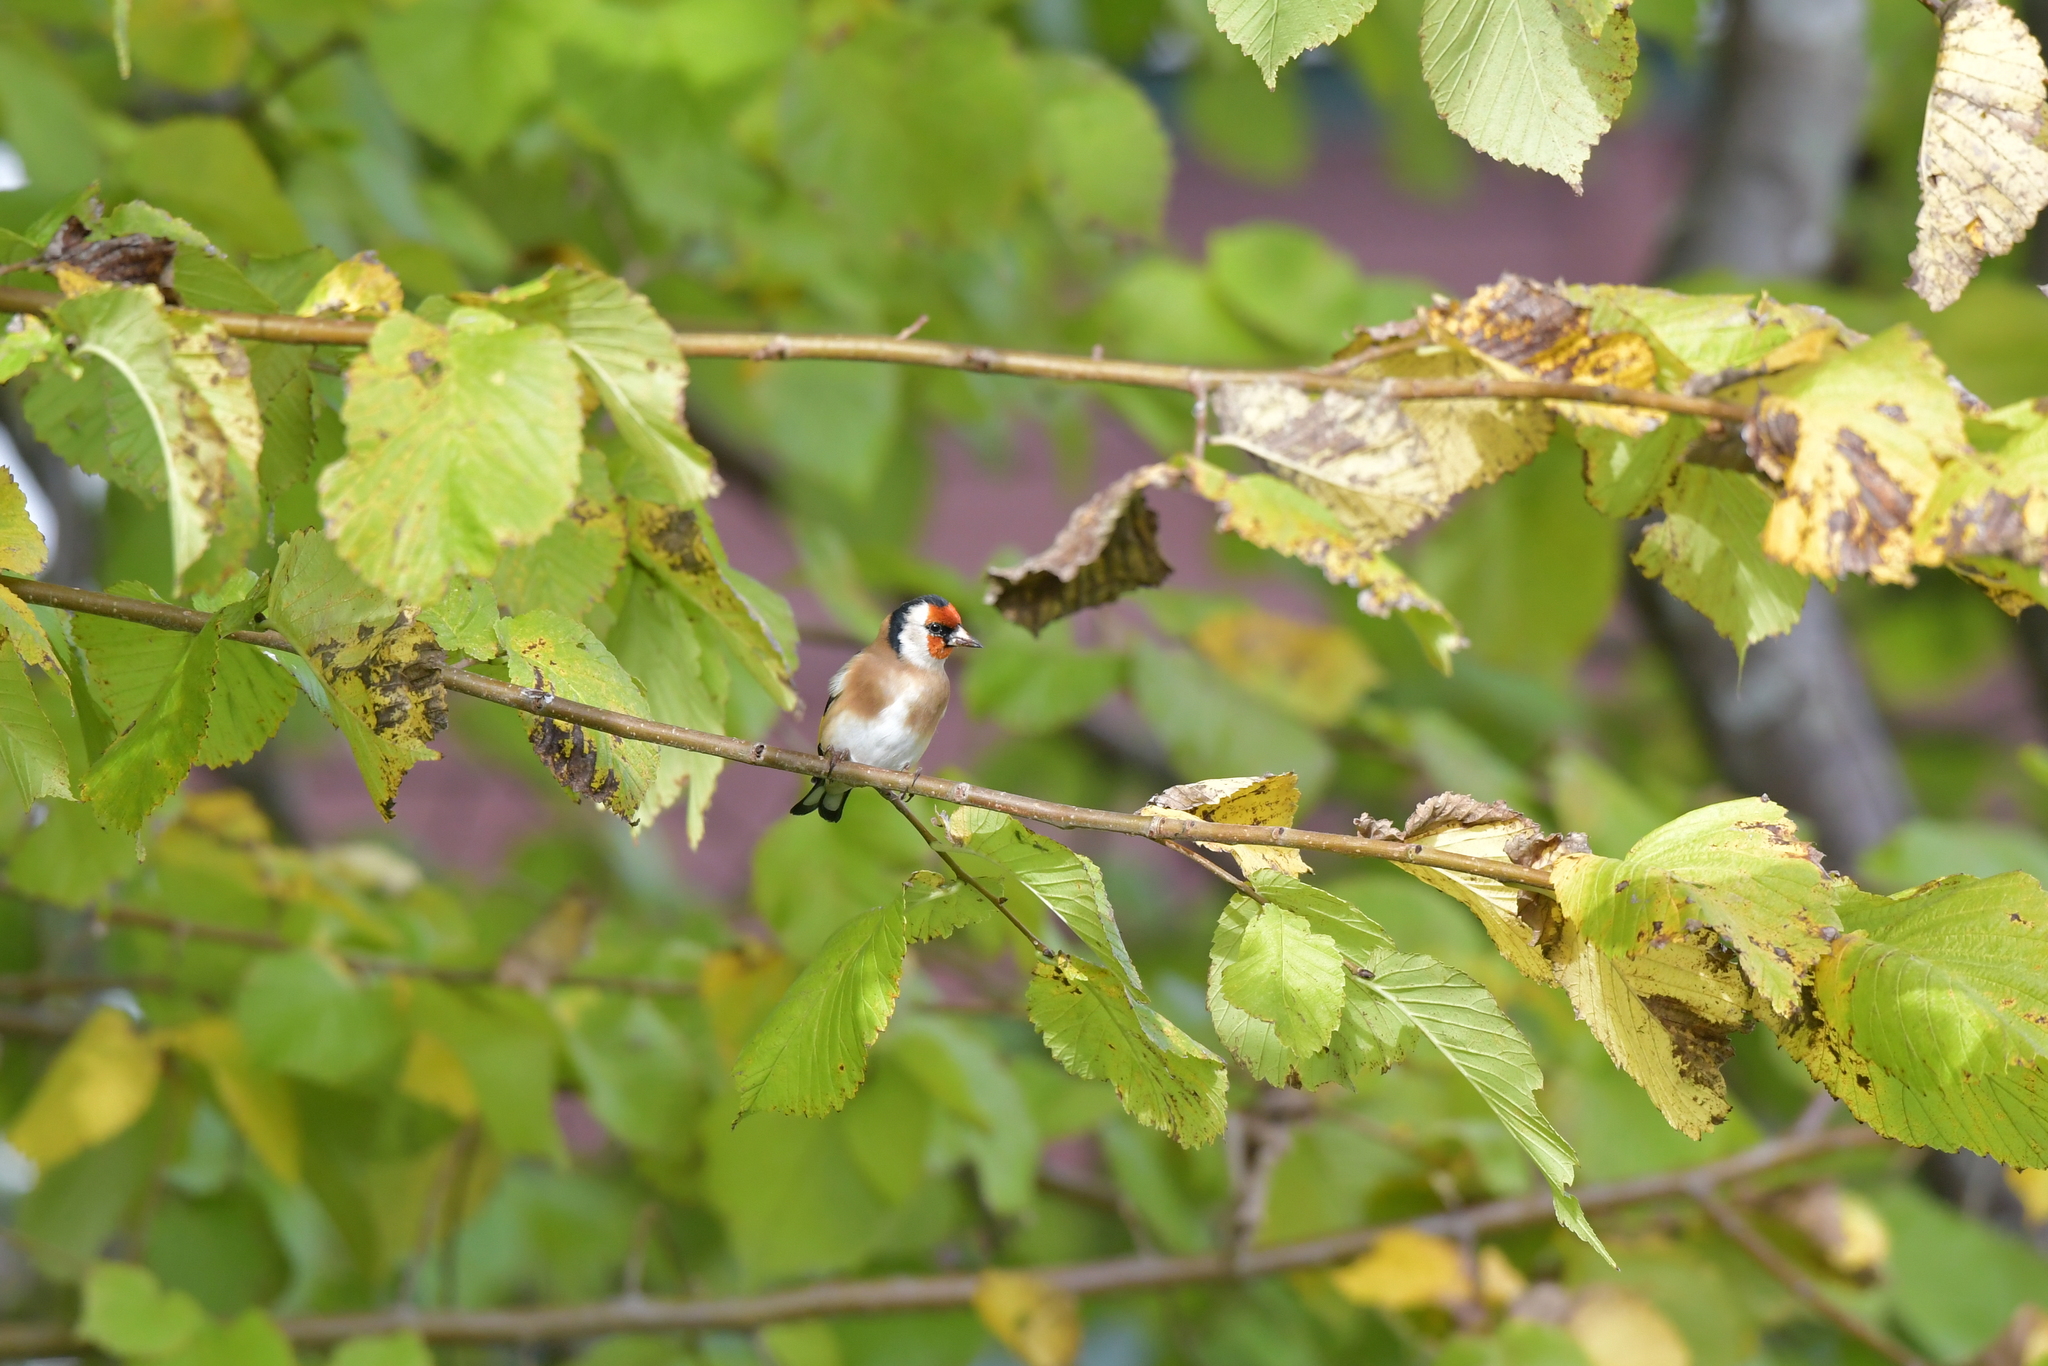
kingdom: Animalia
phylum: Chordata
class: Aves
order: Passeriformes
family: Fringillidae
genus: Carduelis
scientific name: Carduelis carduelis
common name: European goldfinch
